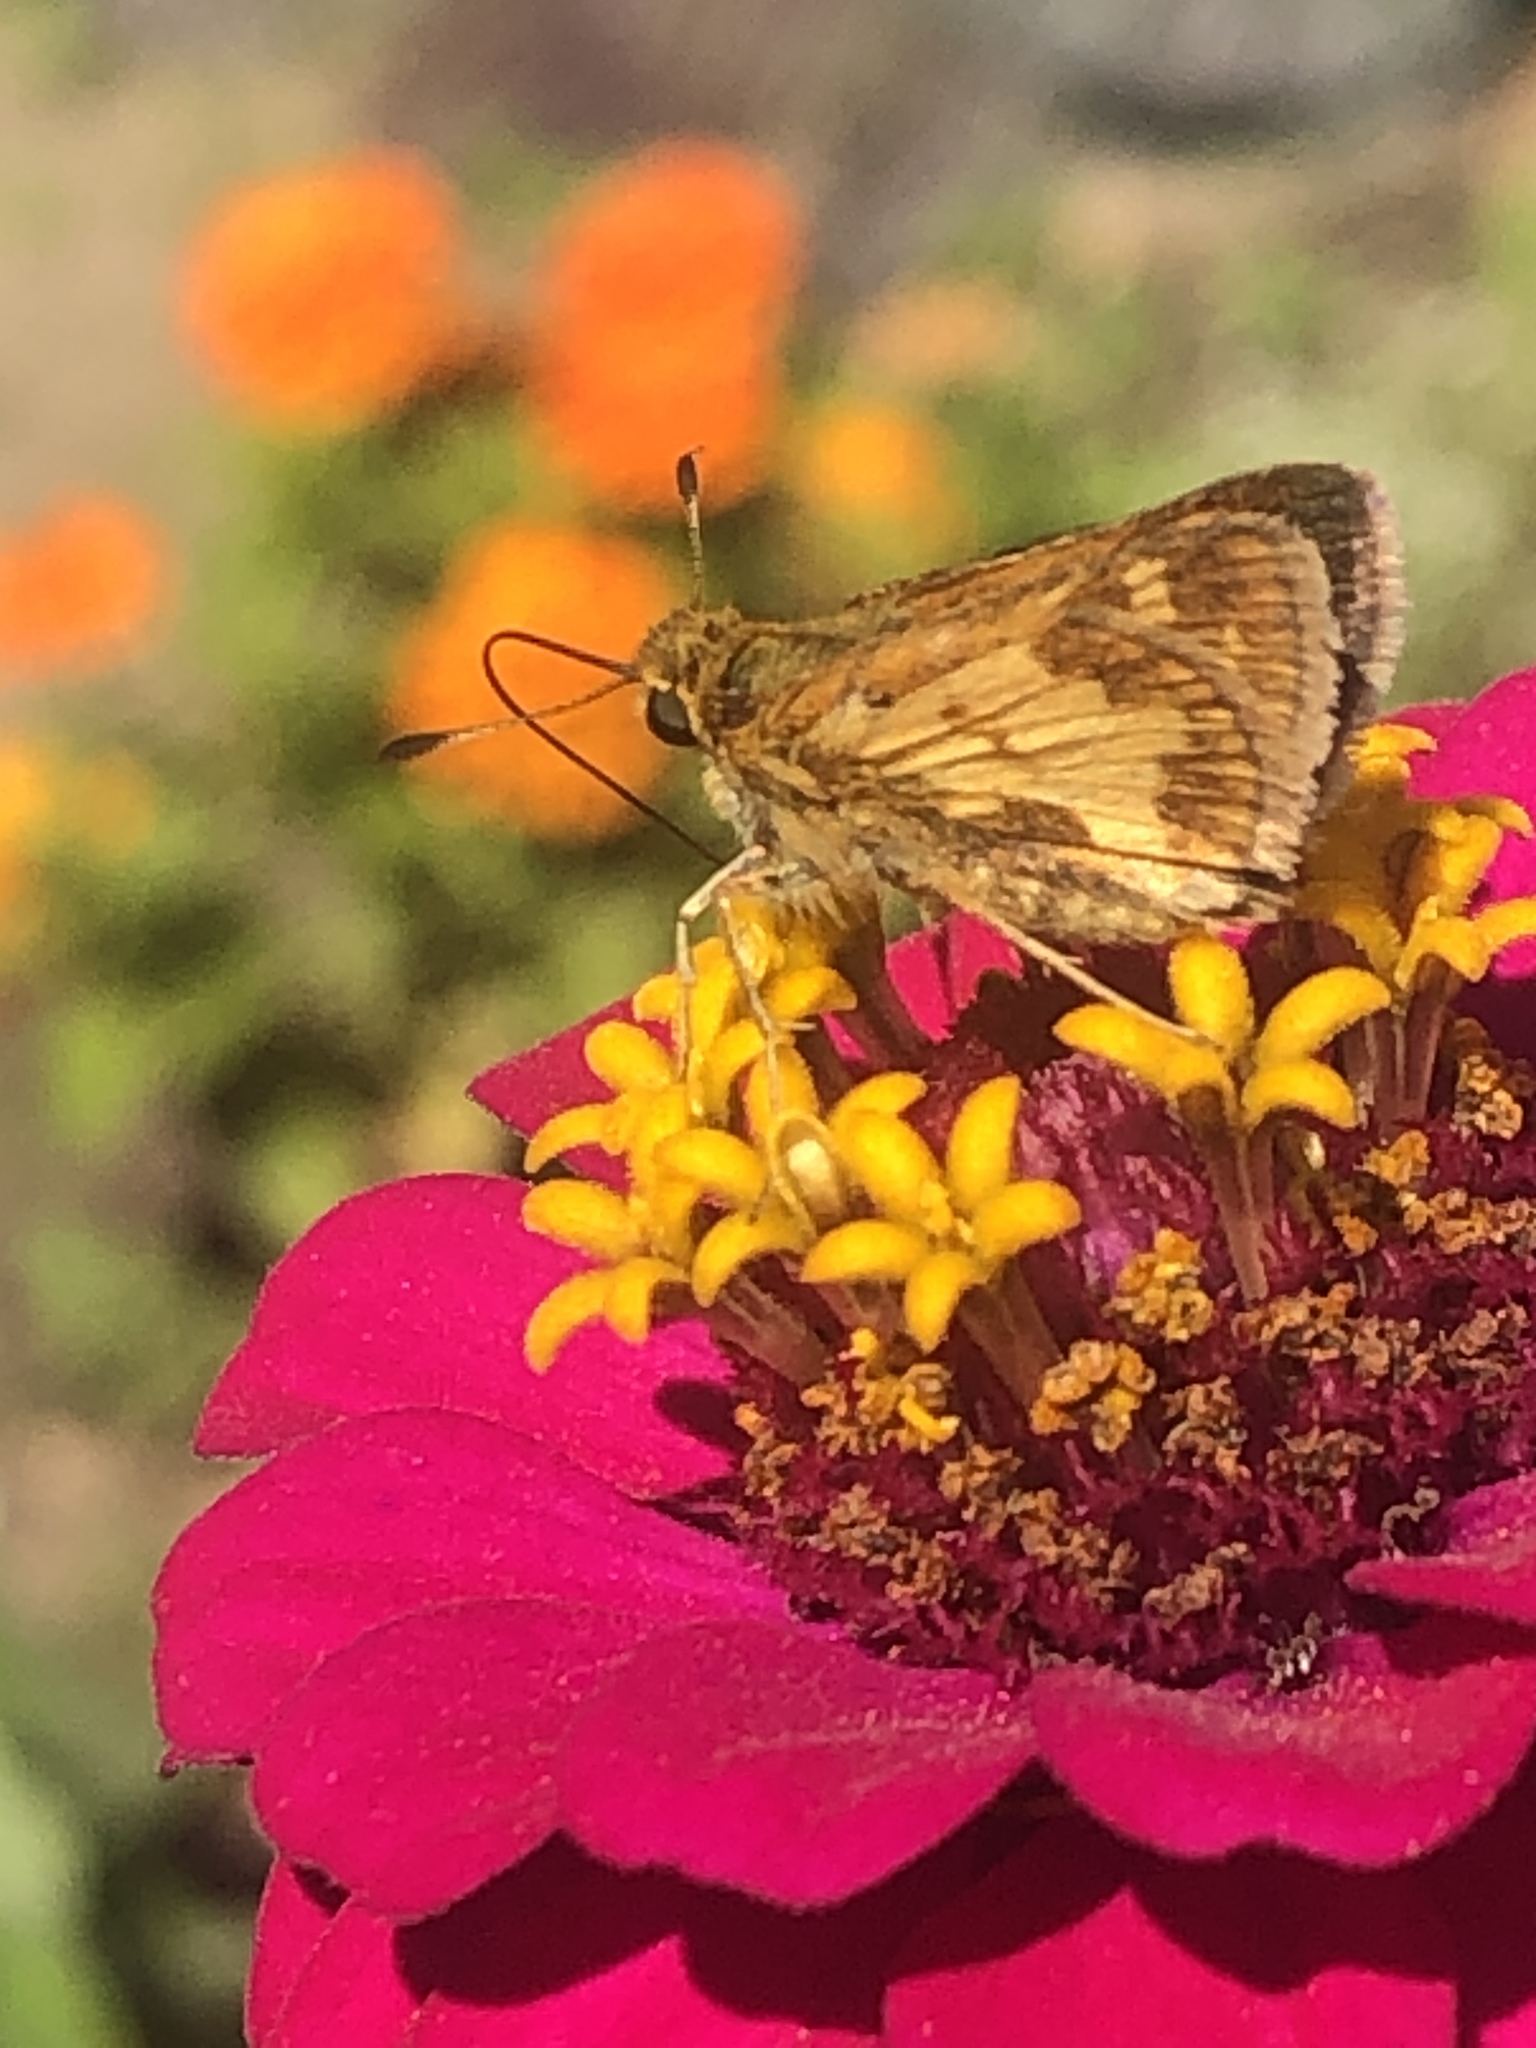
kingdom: Animalia
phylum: Arthropoda
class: Insecta
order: Lepidoptera
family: Hesperiidae
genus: Polites
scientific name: Polites coras
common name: Peck's skipper
